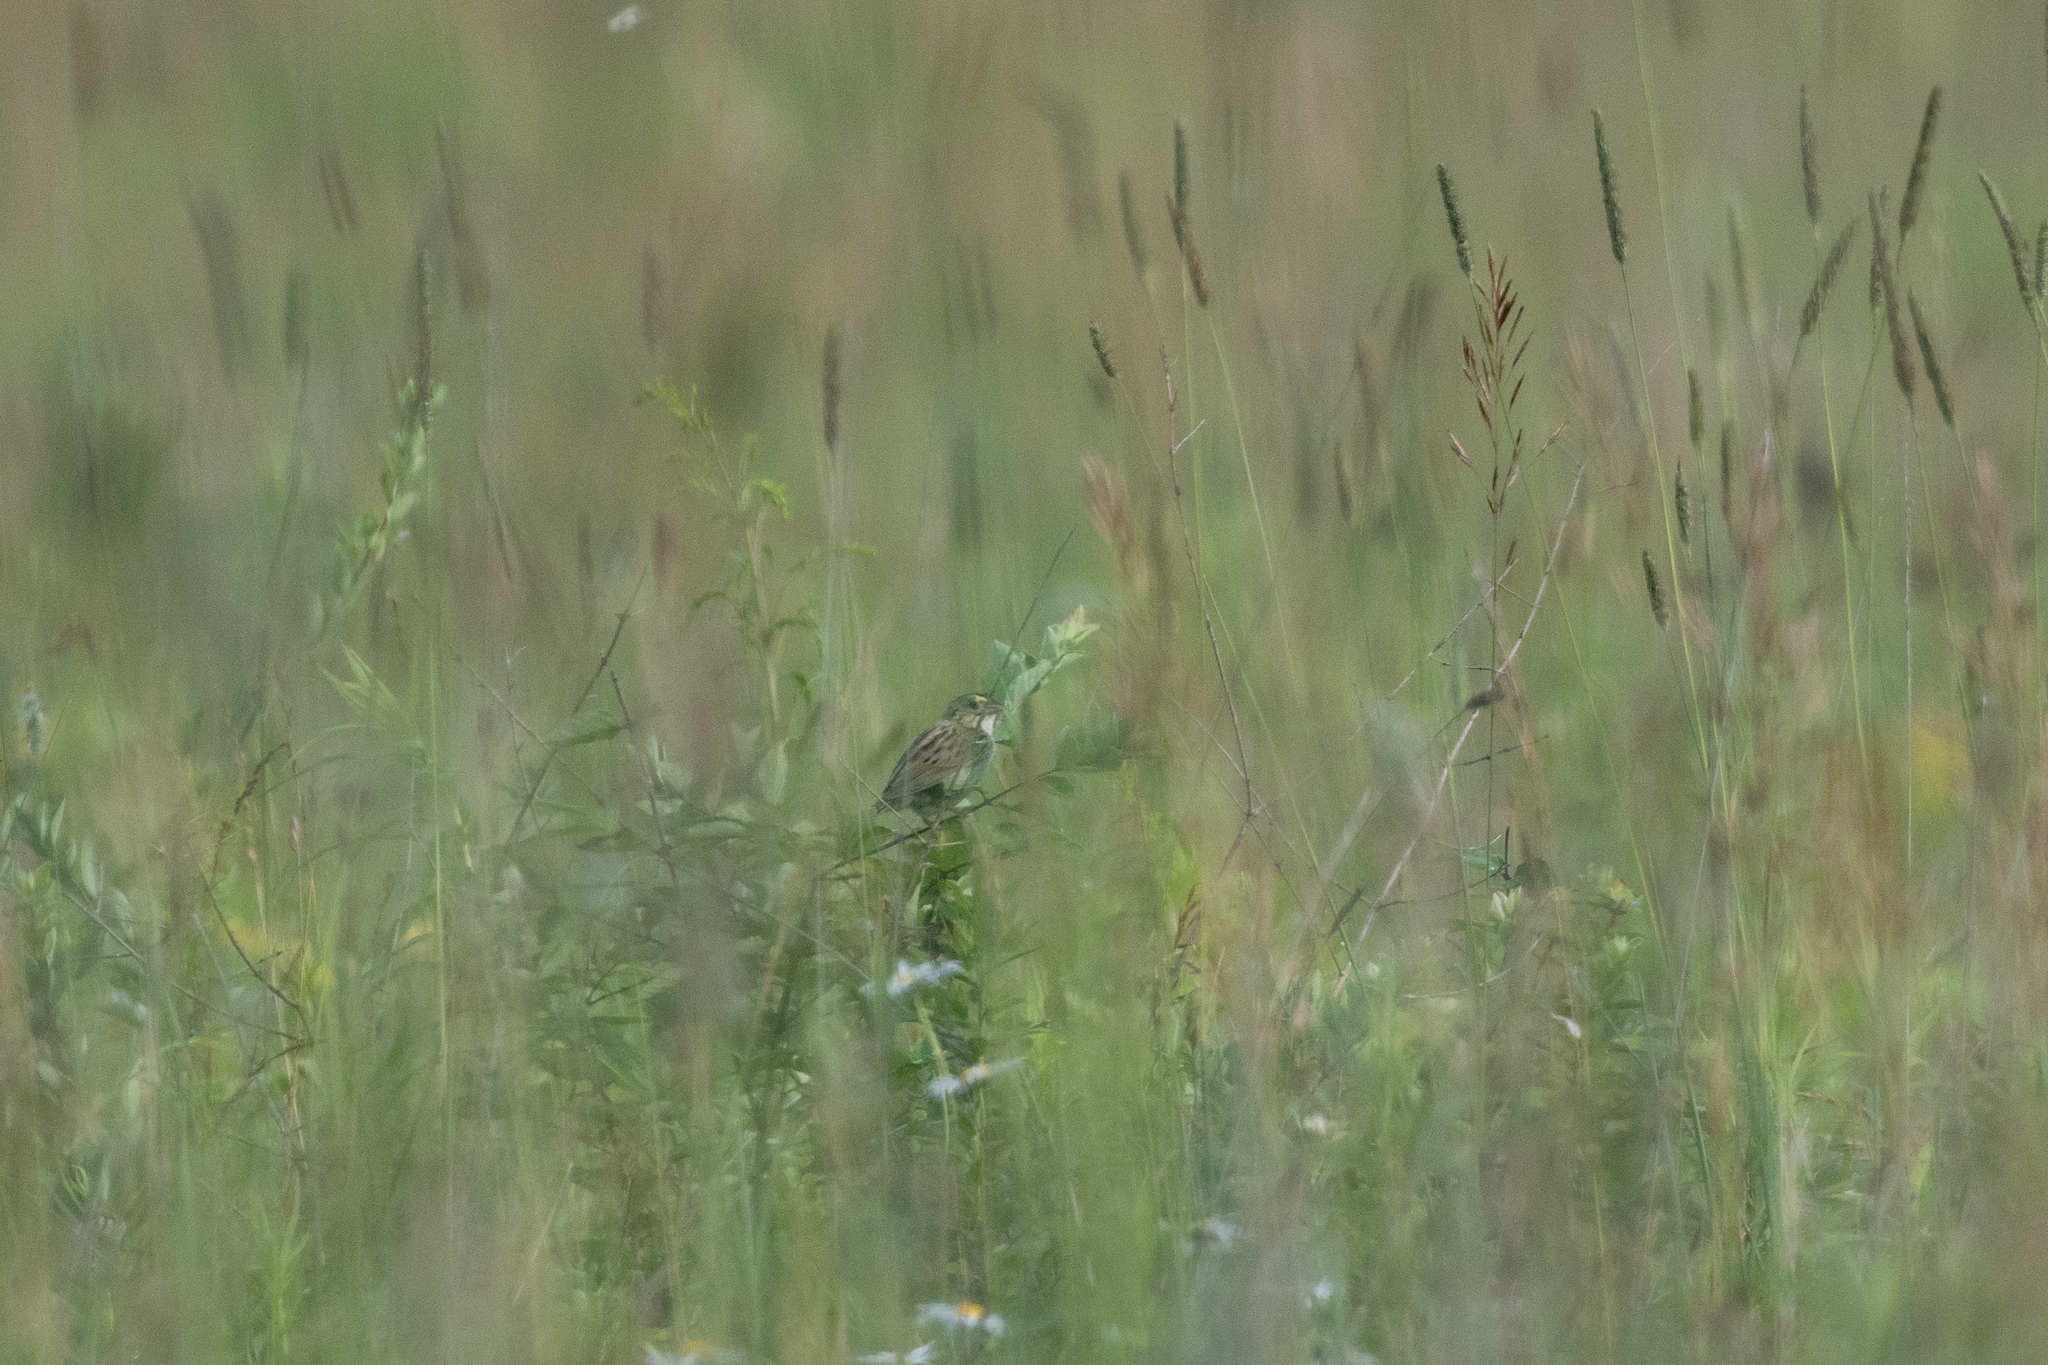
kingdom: Animalia
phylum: Chordata
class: Aves
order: Passeriformes
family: Passerellidae
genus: Centronyx
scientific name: Centronyx henslowii
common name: Henslow's sparrow
